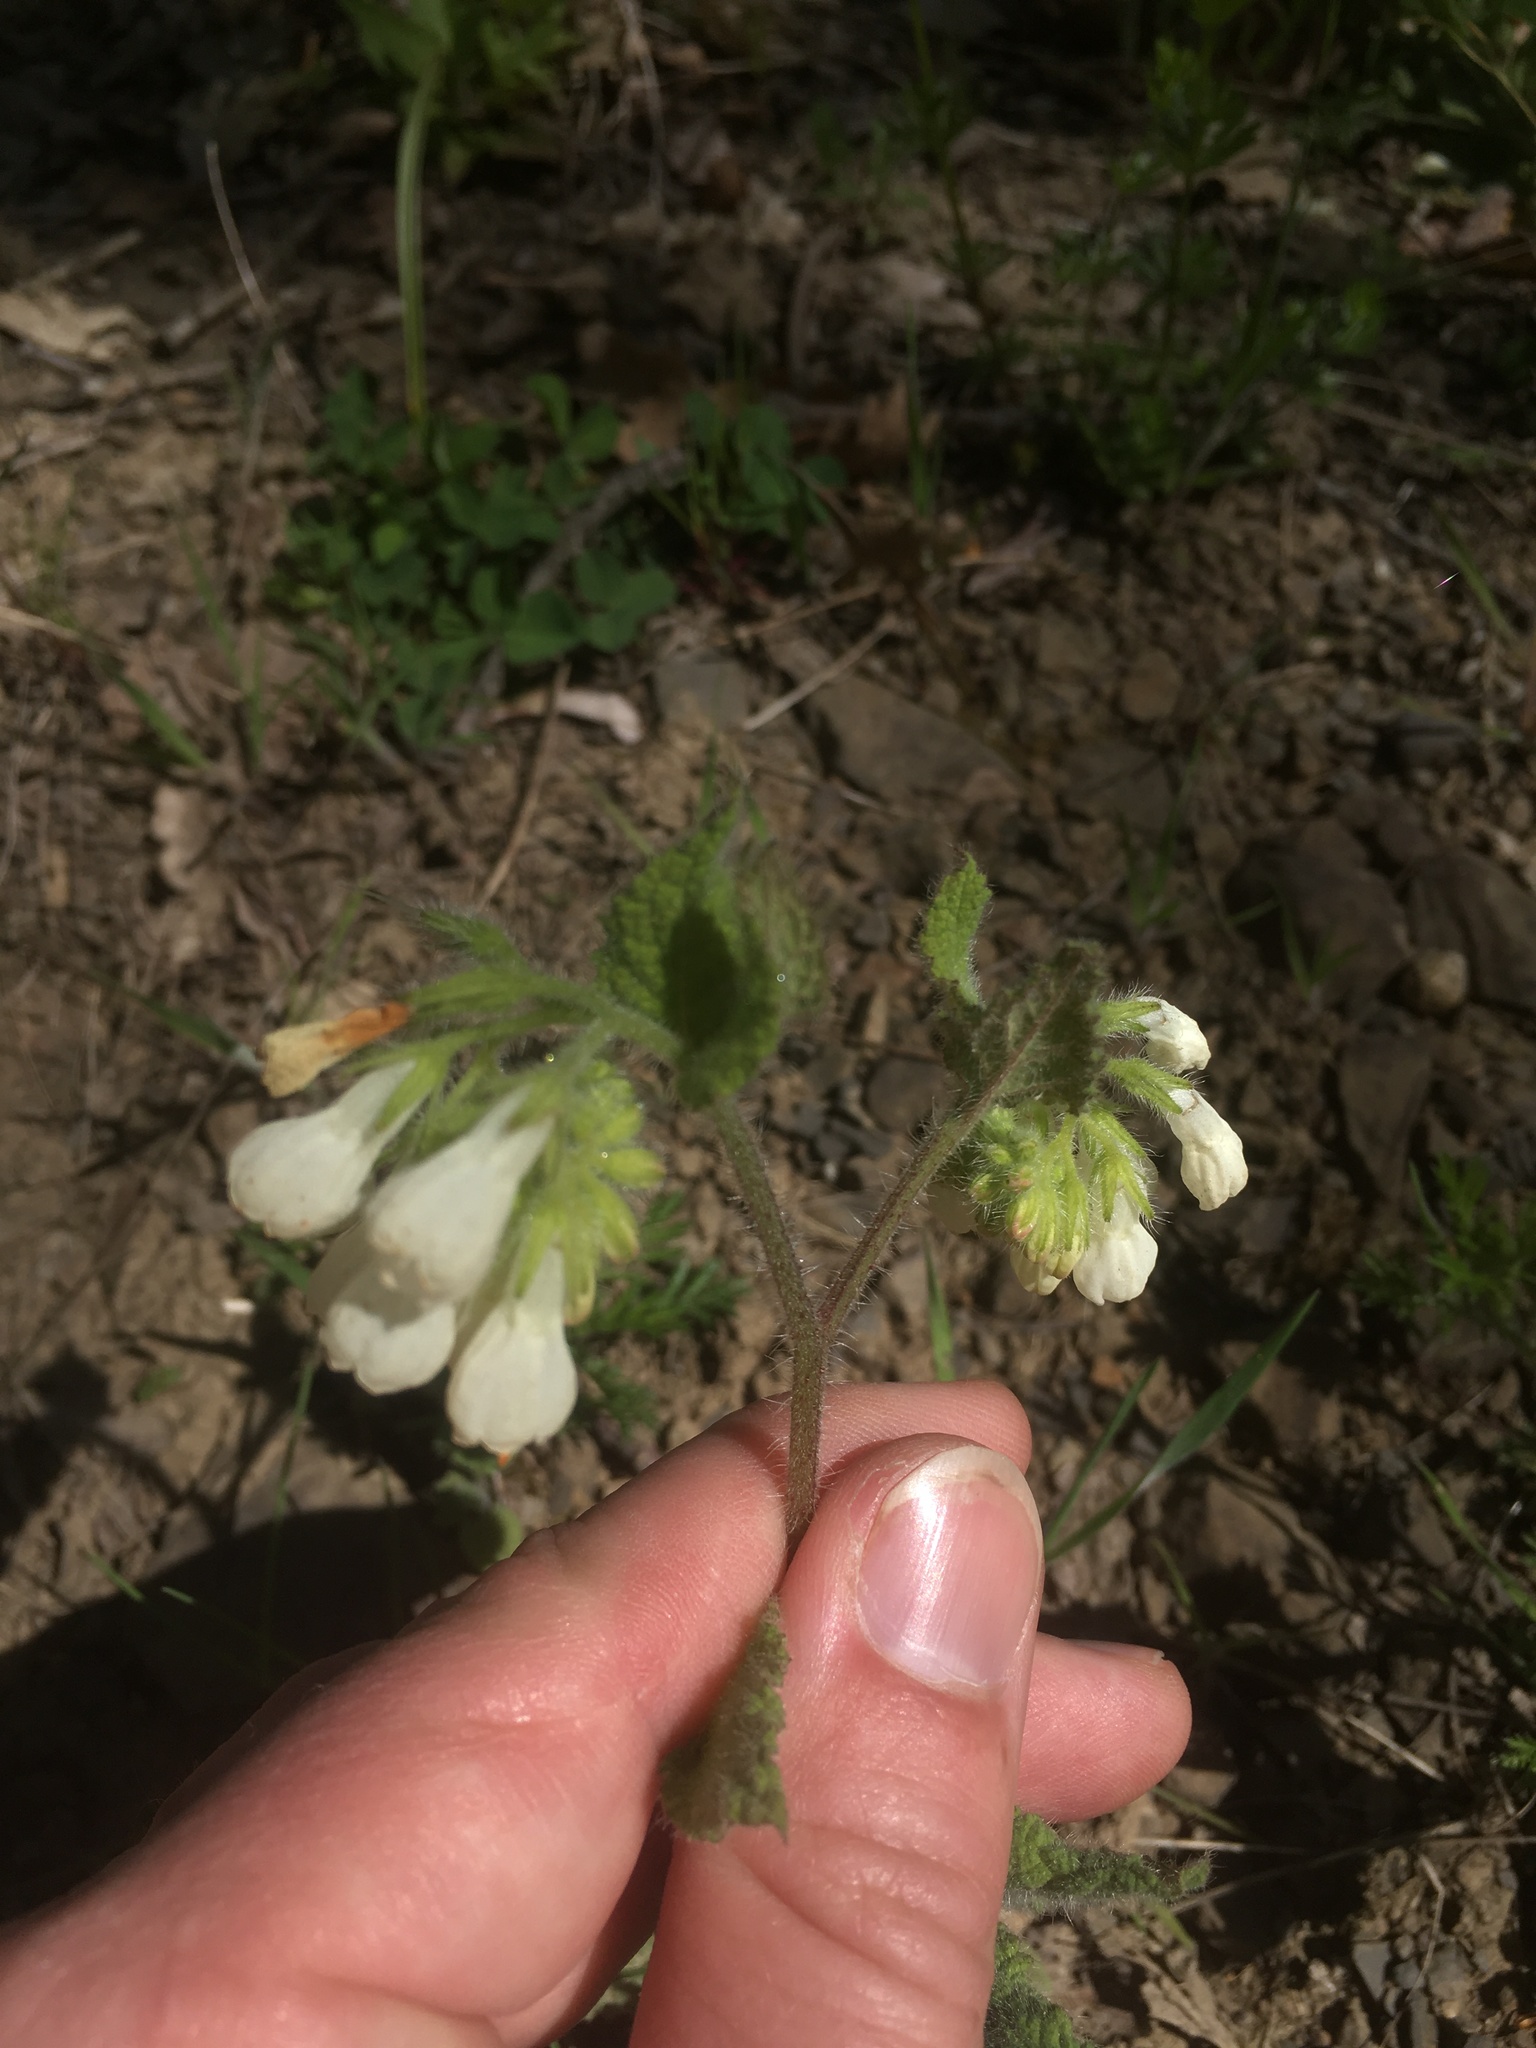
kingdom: Plantae
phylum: Tracheophyta
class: Magnoliopsida
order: Boraginales
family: Boraginaceae
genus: Symphytum
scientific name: Symphytum tauricum
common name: Crimean comfrey
